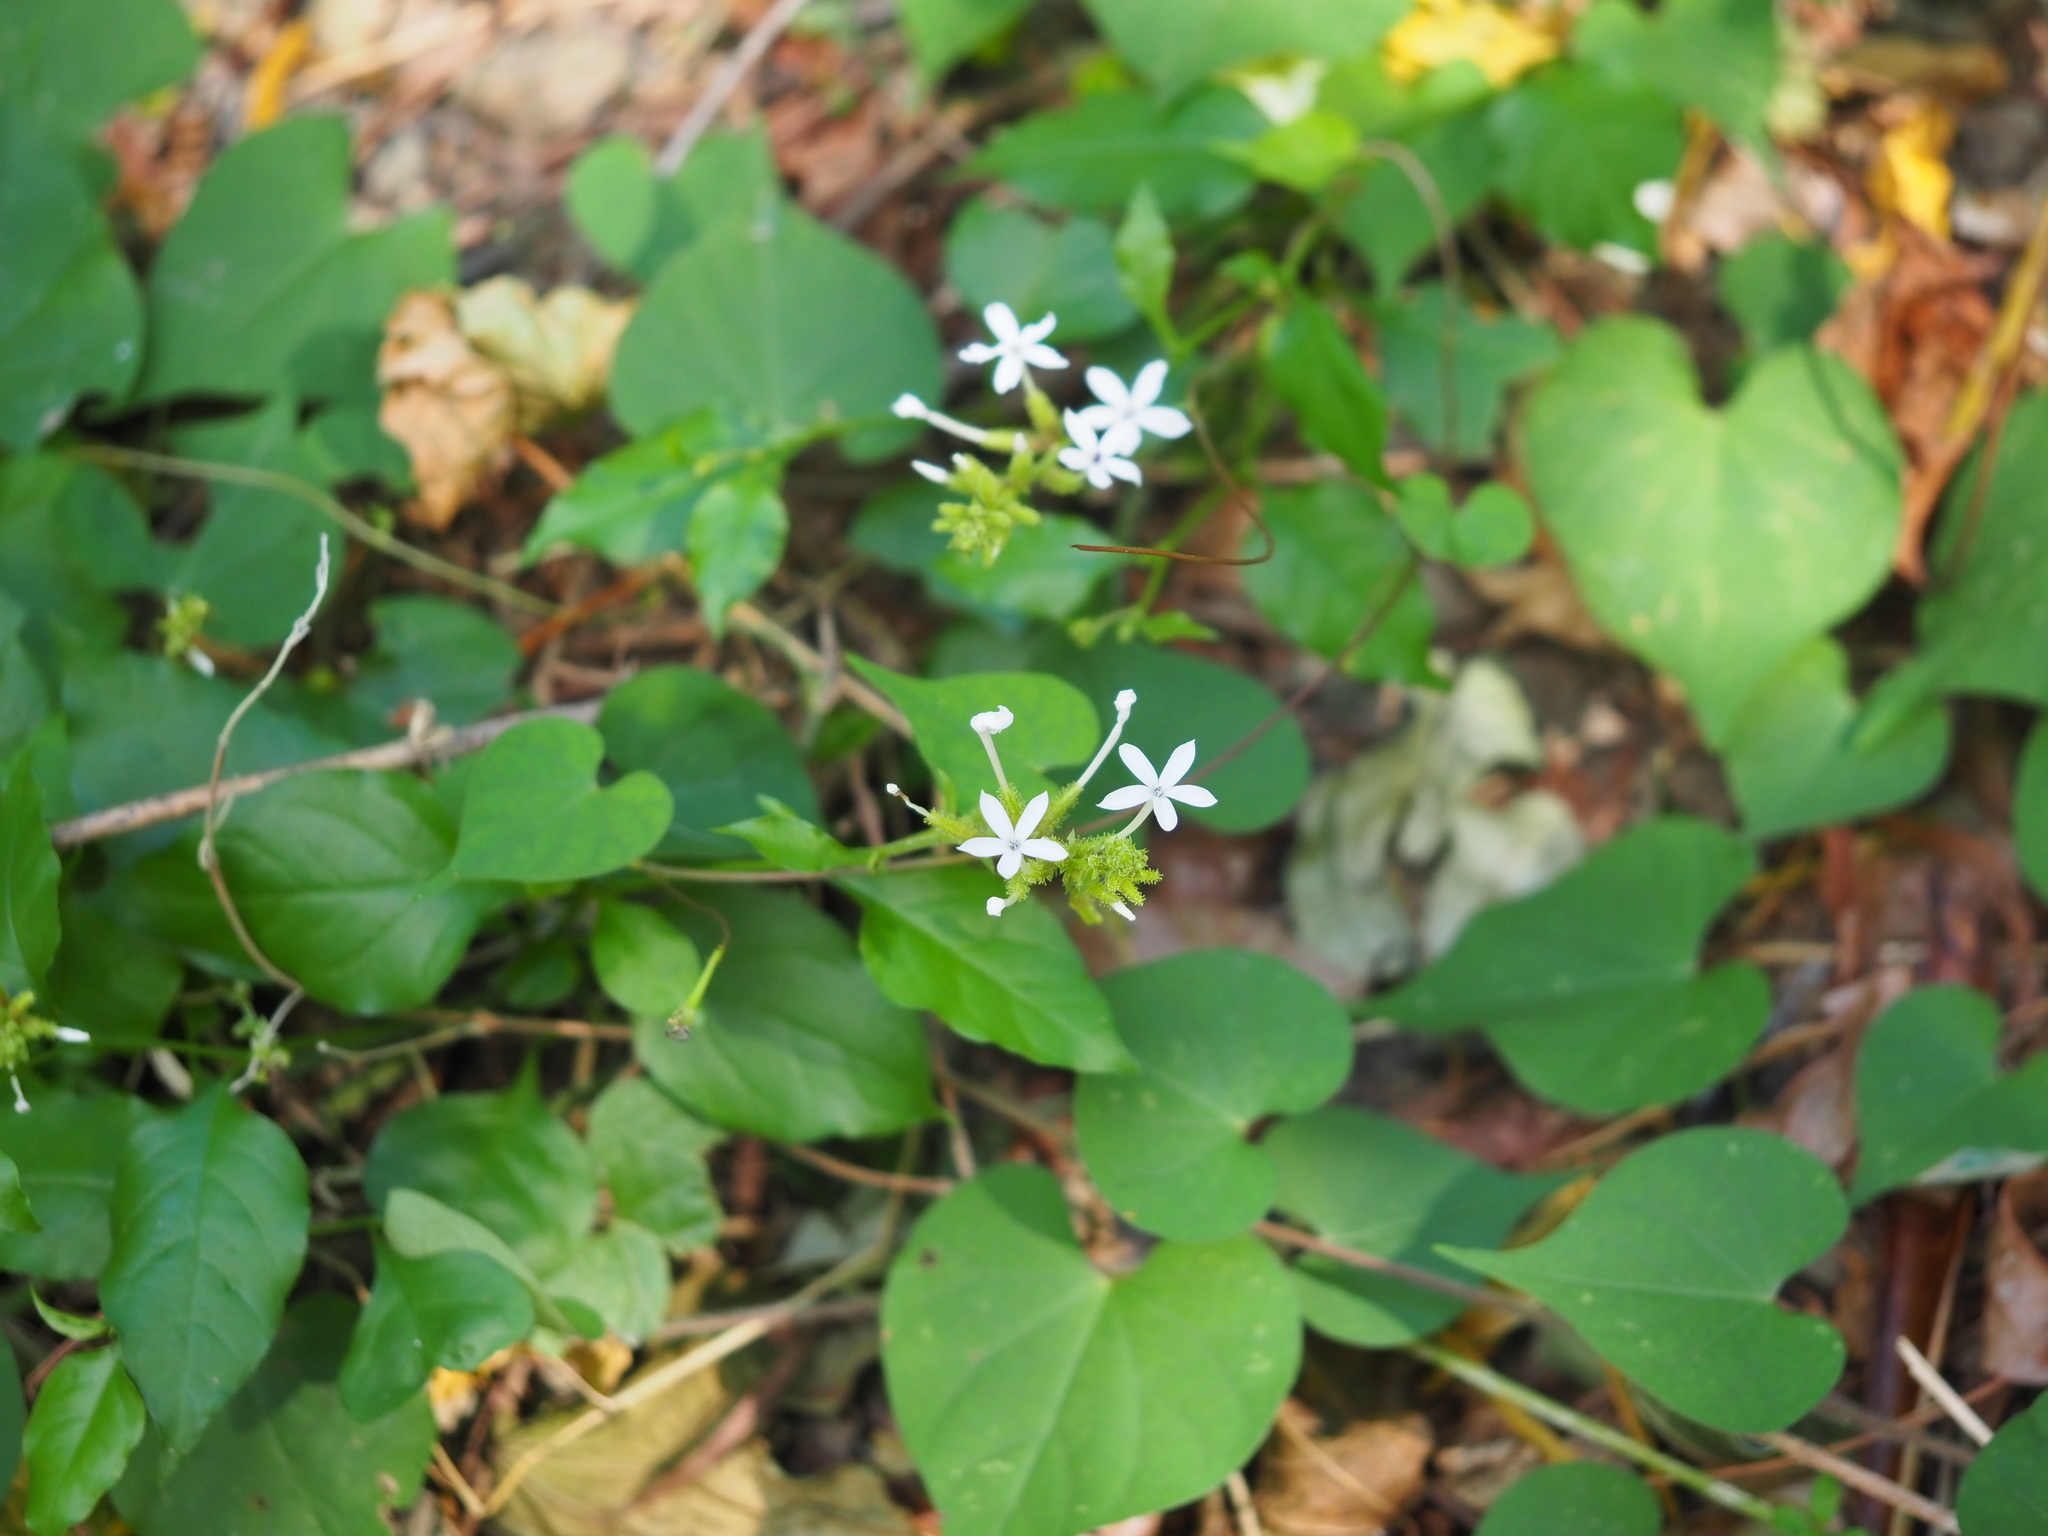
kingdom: Plantae
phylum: Tracheophyta
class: Magnoliopsida
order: Caryophyllales
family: Plumbaginaceae
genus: Plumbago
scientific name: Plumbago zeylanica
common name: Doctorbush
